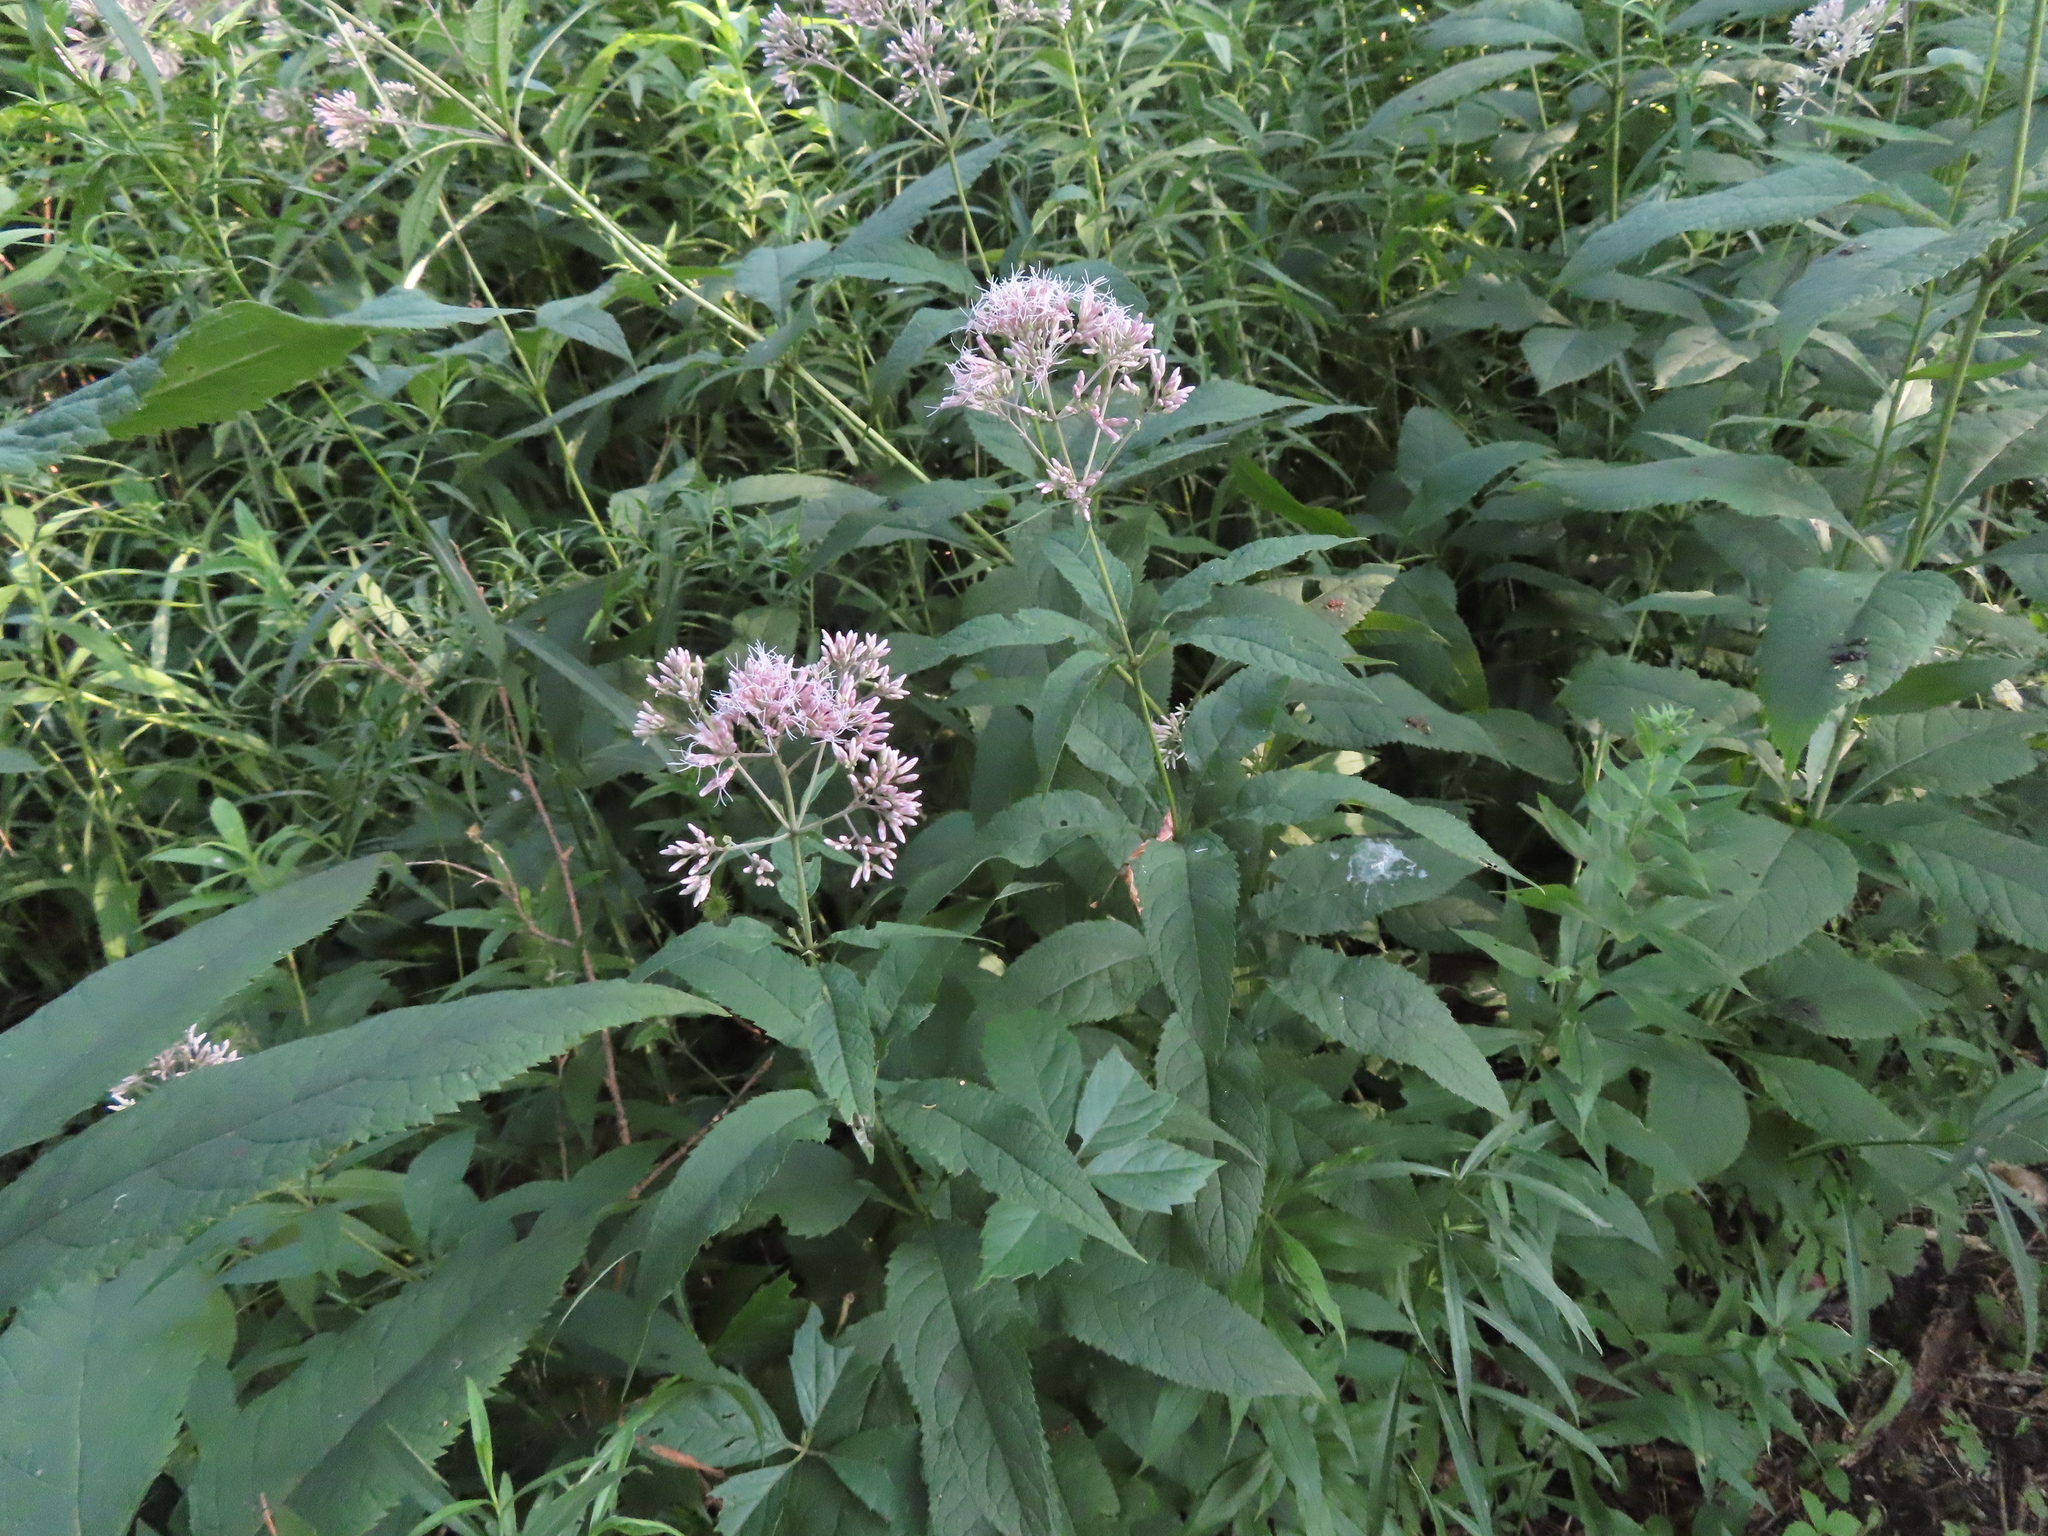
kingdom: Plantae
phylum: Tracheophyta
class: Magnoliopsida
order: Asterales
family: Asteraceae
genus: Eutrochium
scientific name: Eutrochium purpureum
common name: Gravelroot
